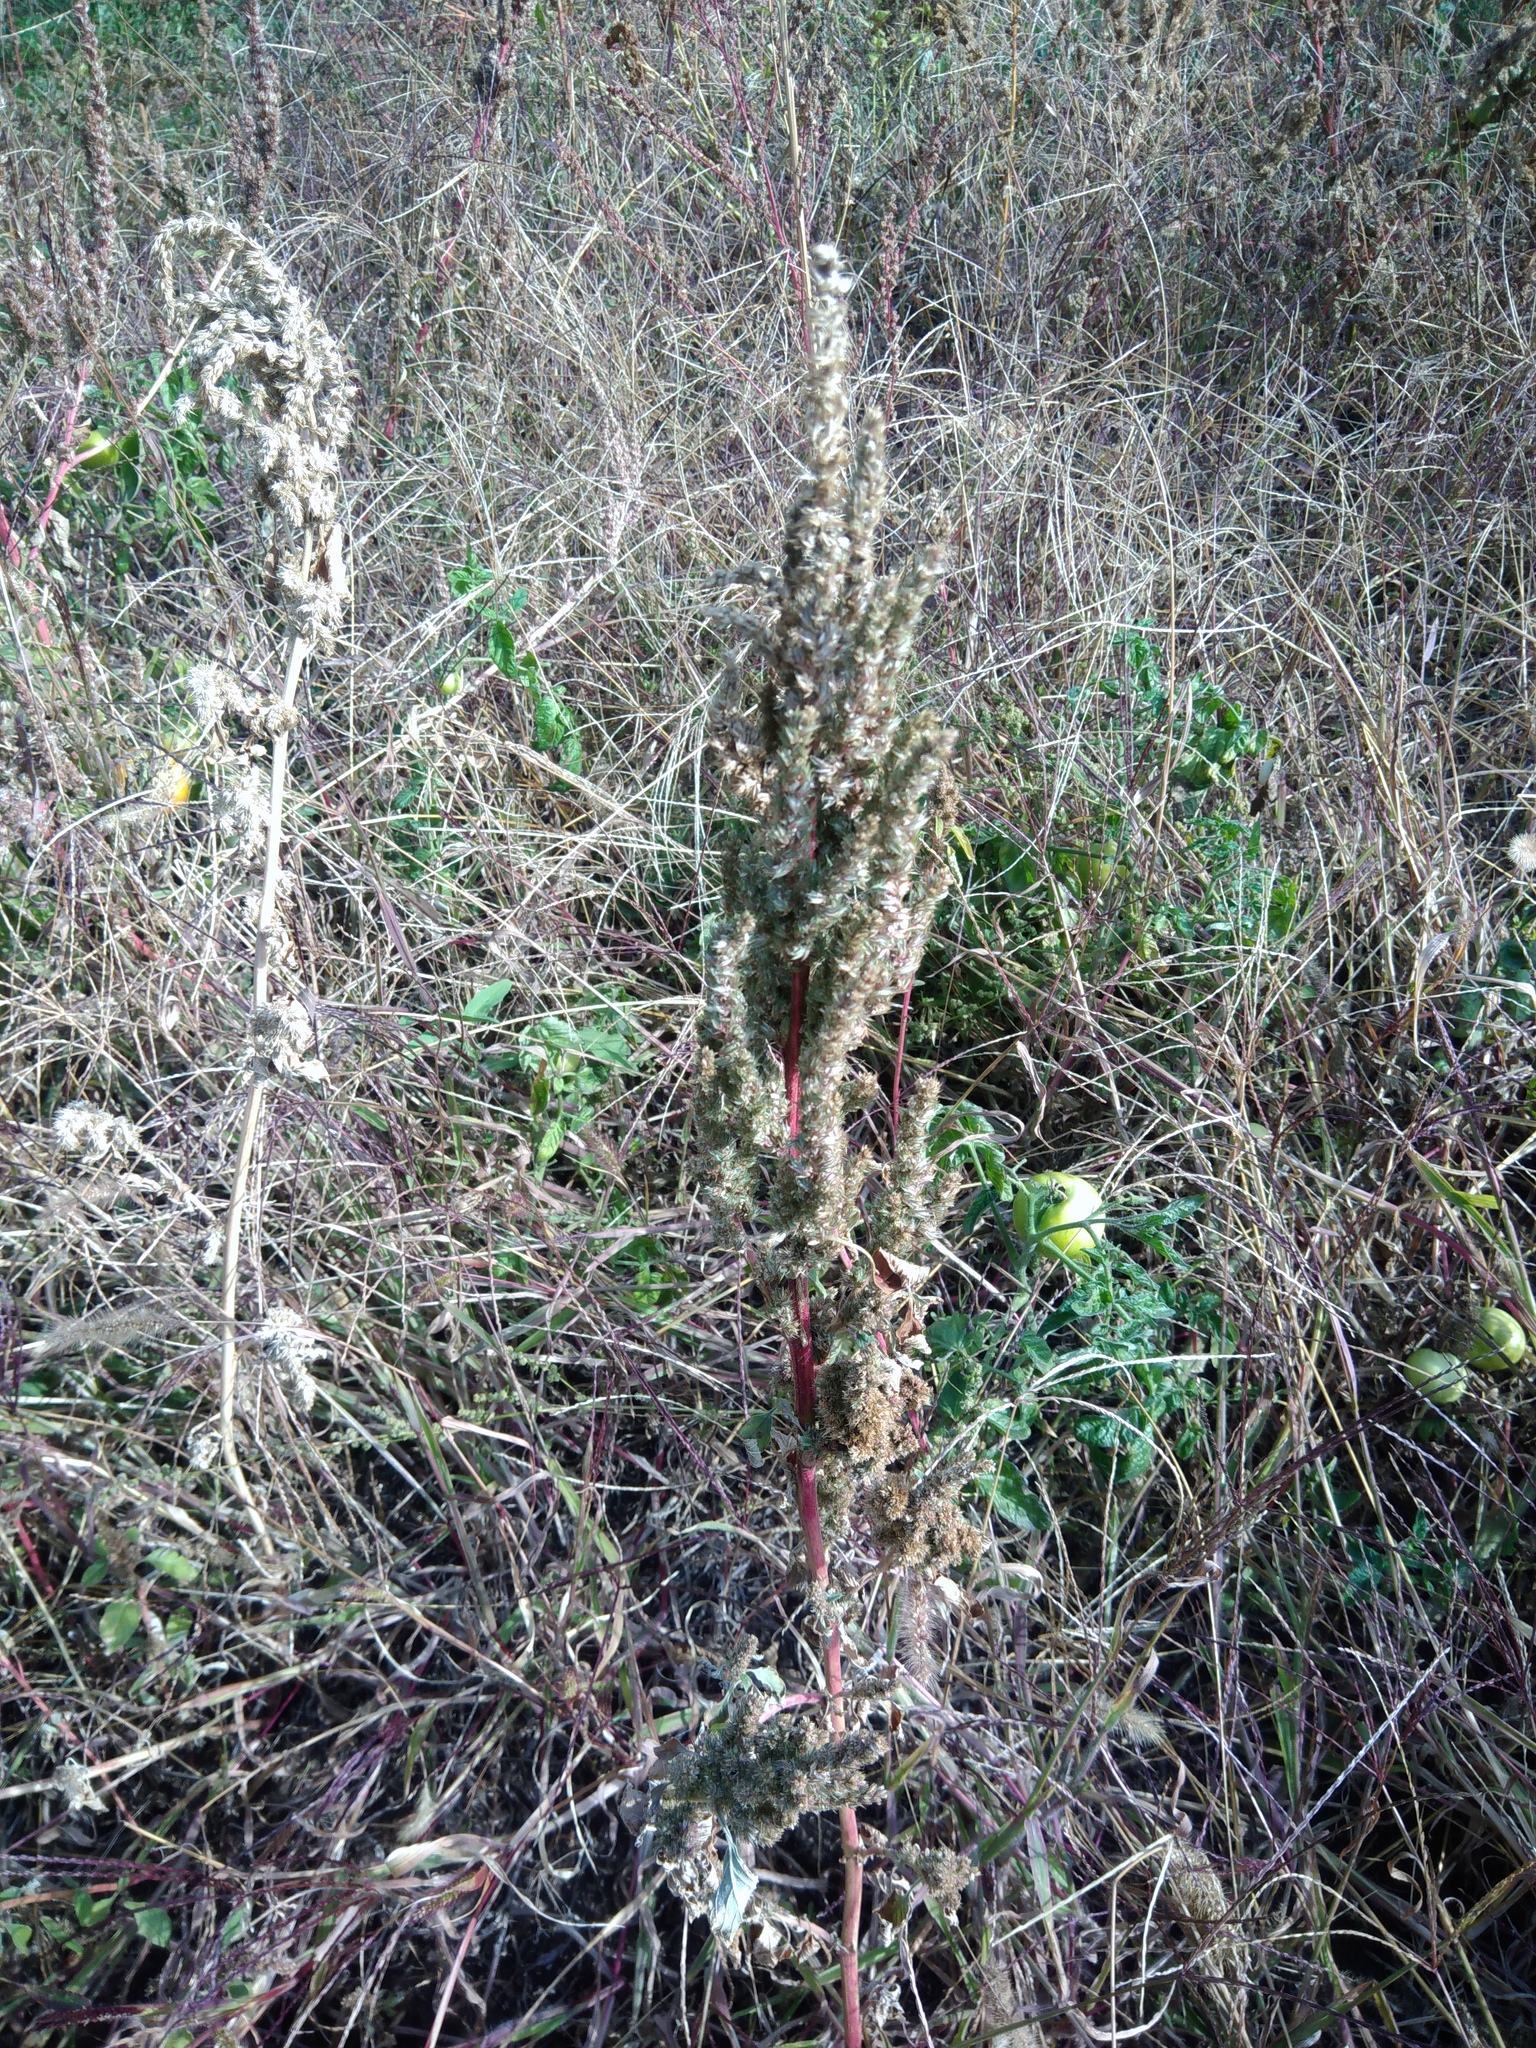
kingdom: Plantae
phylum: Tracheophyta
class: Magnoliopsida
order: Caryophyllales
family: Amaranthaceae
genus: Amaranthus
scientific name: Amaranthus retroflexus
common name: Redroot amaranth
